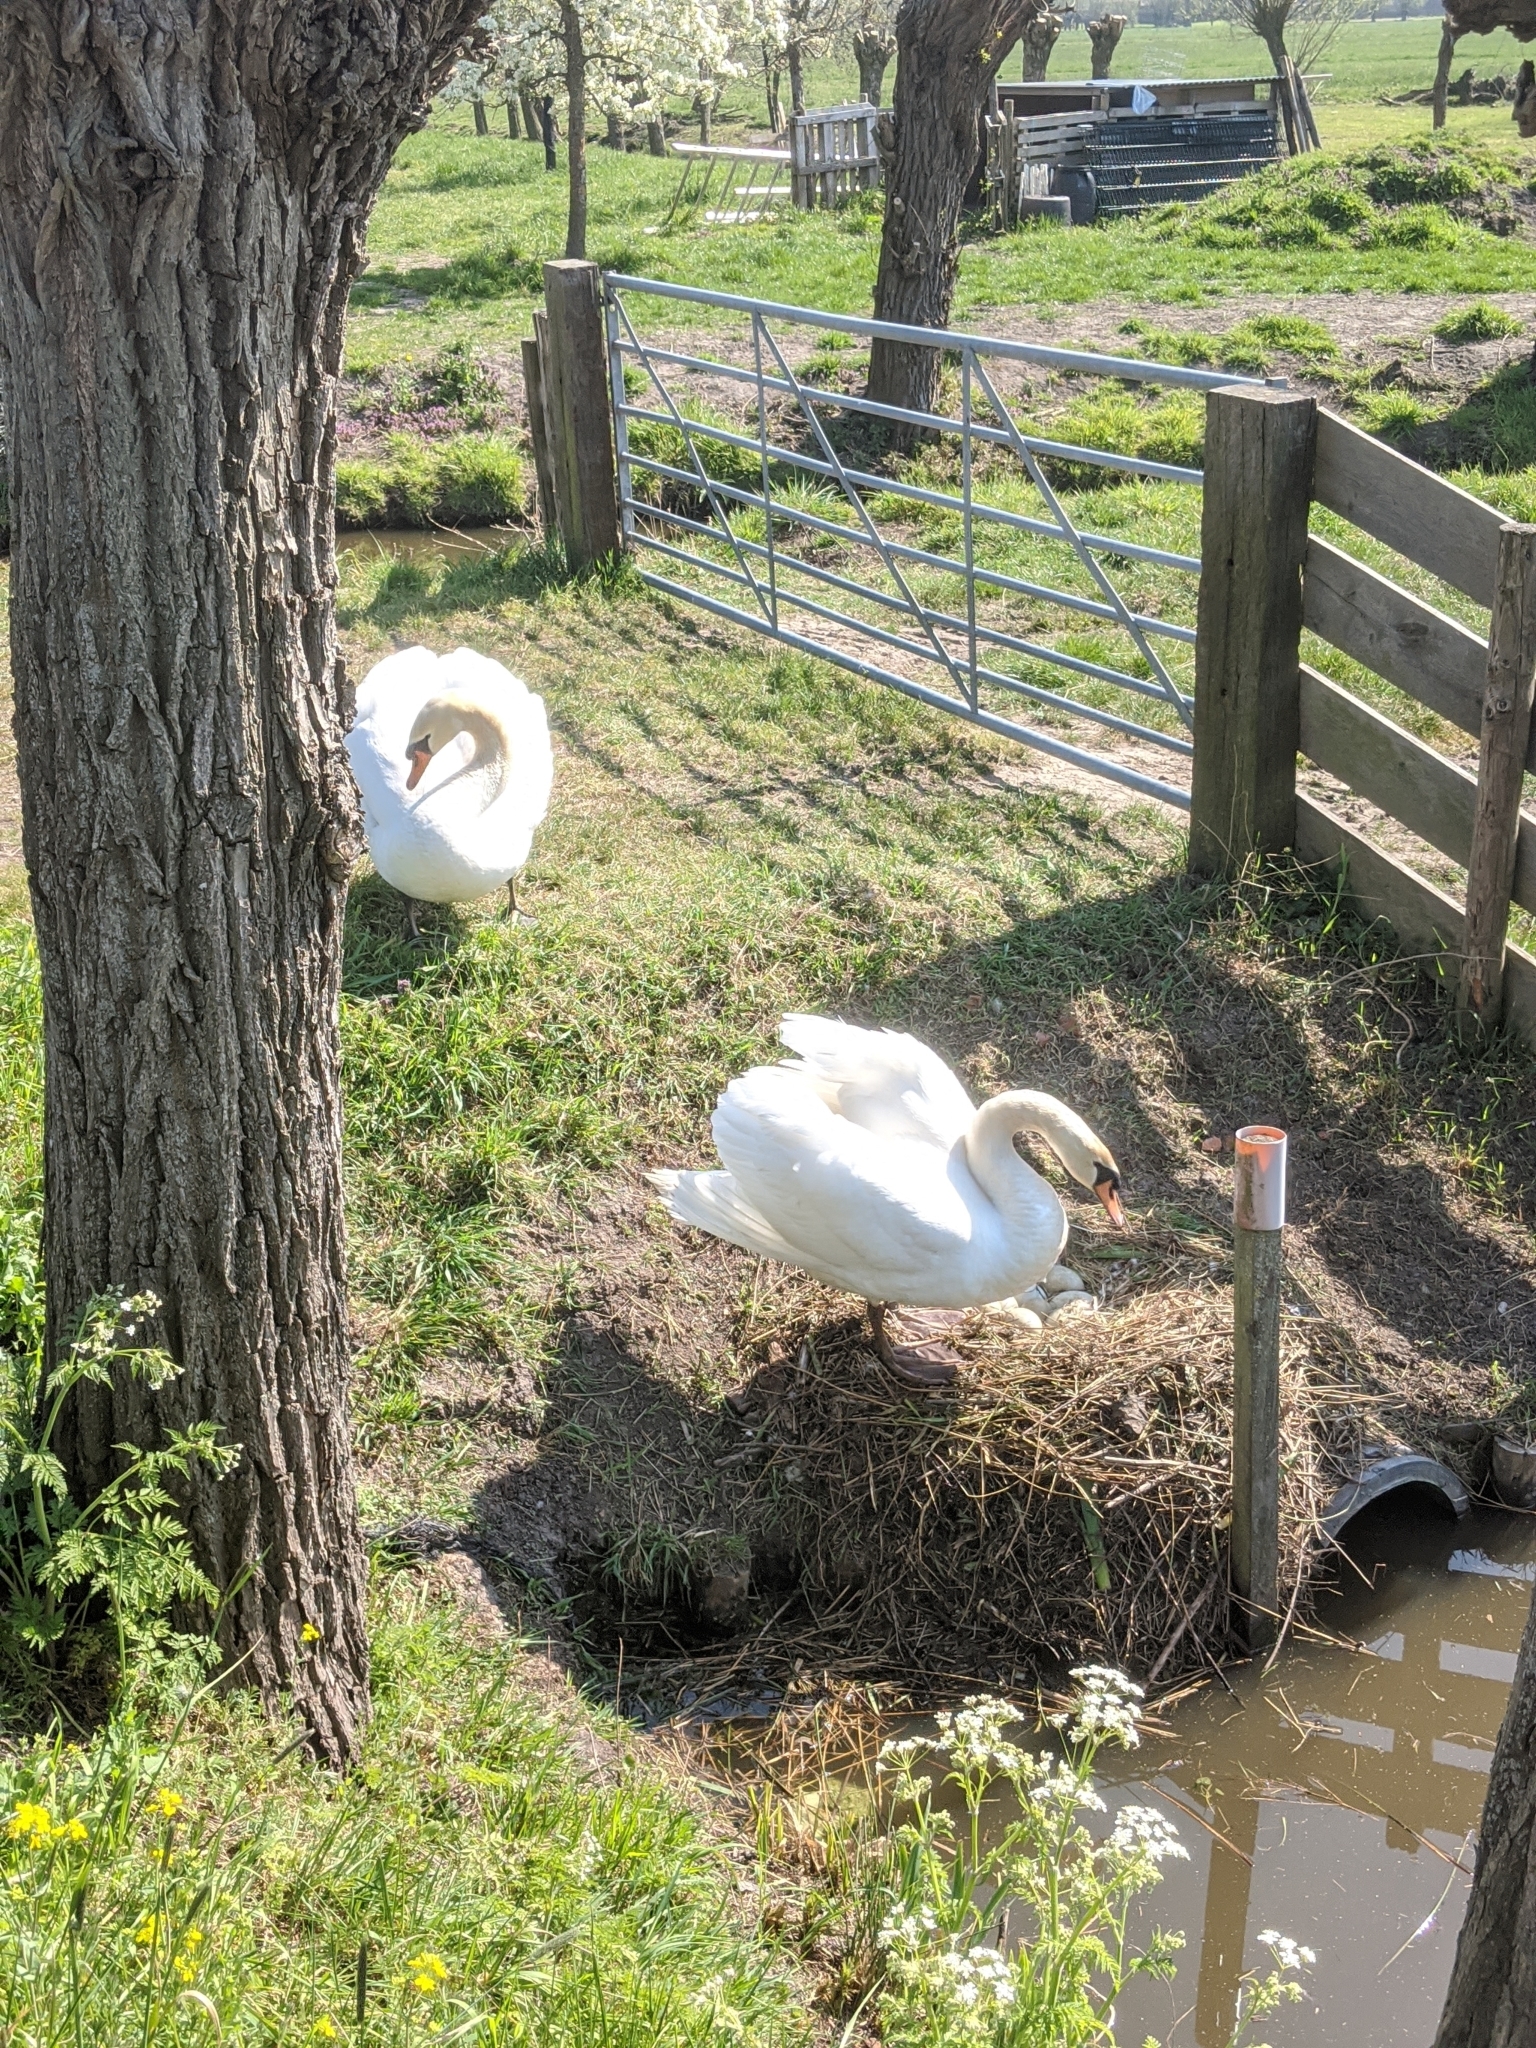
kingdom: Animalia
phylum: Chordata
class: Aves
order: Anseriformes
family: Anatidae
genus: Cygnus
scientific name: Cygnus olor
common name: Mute swan
